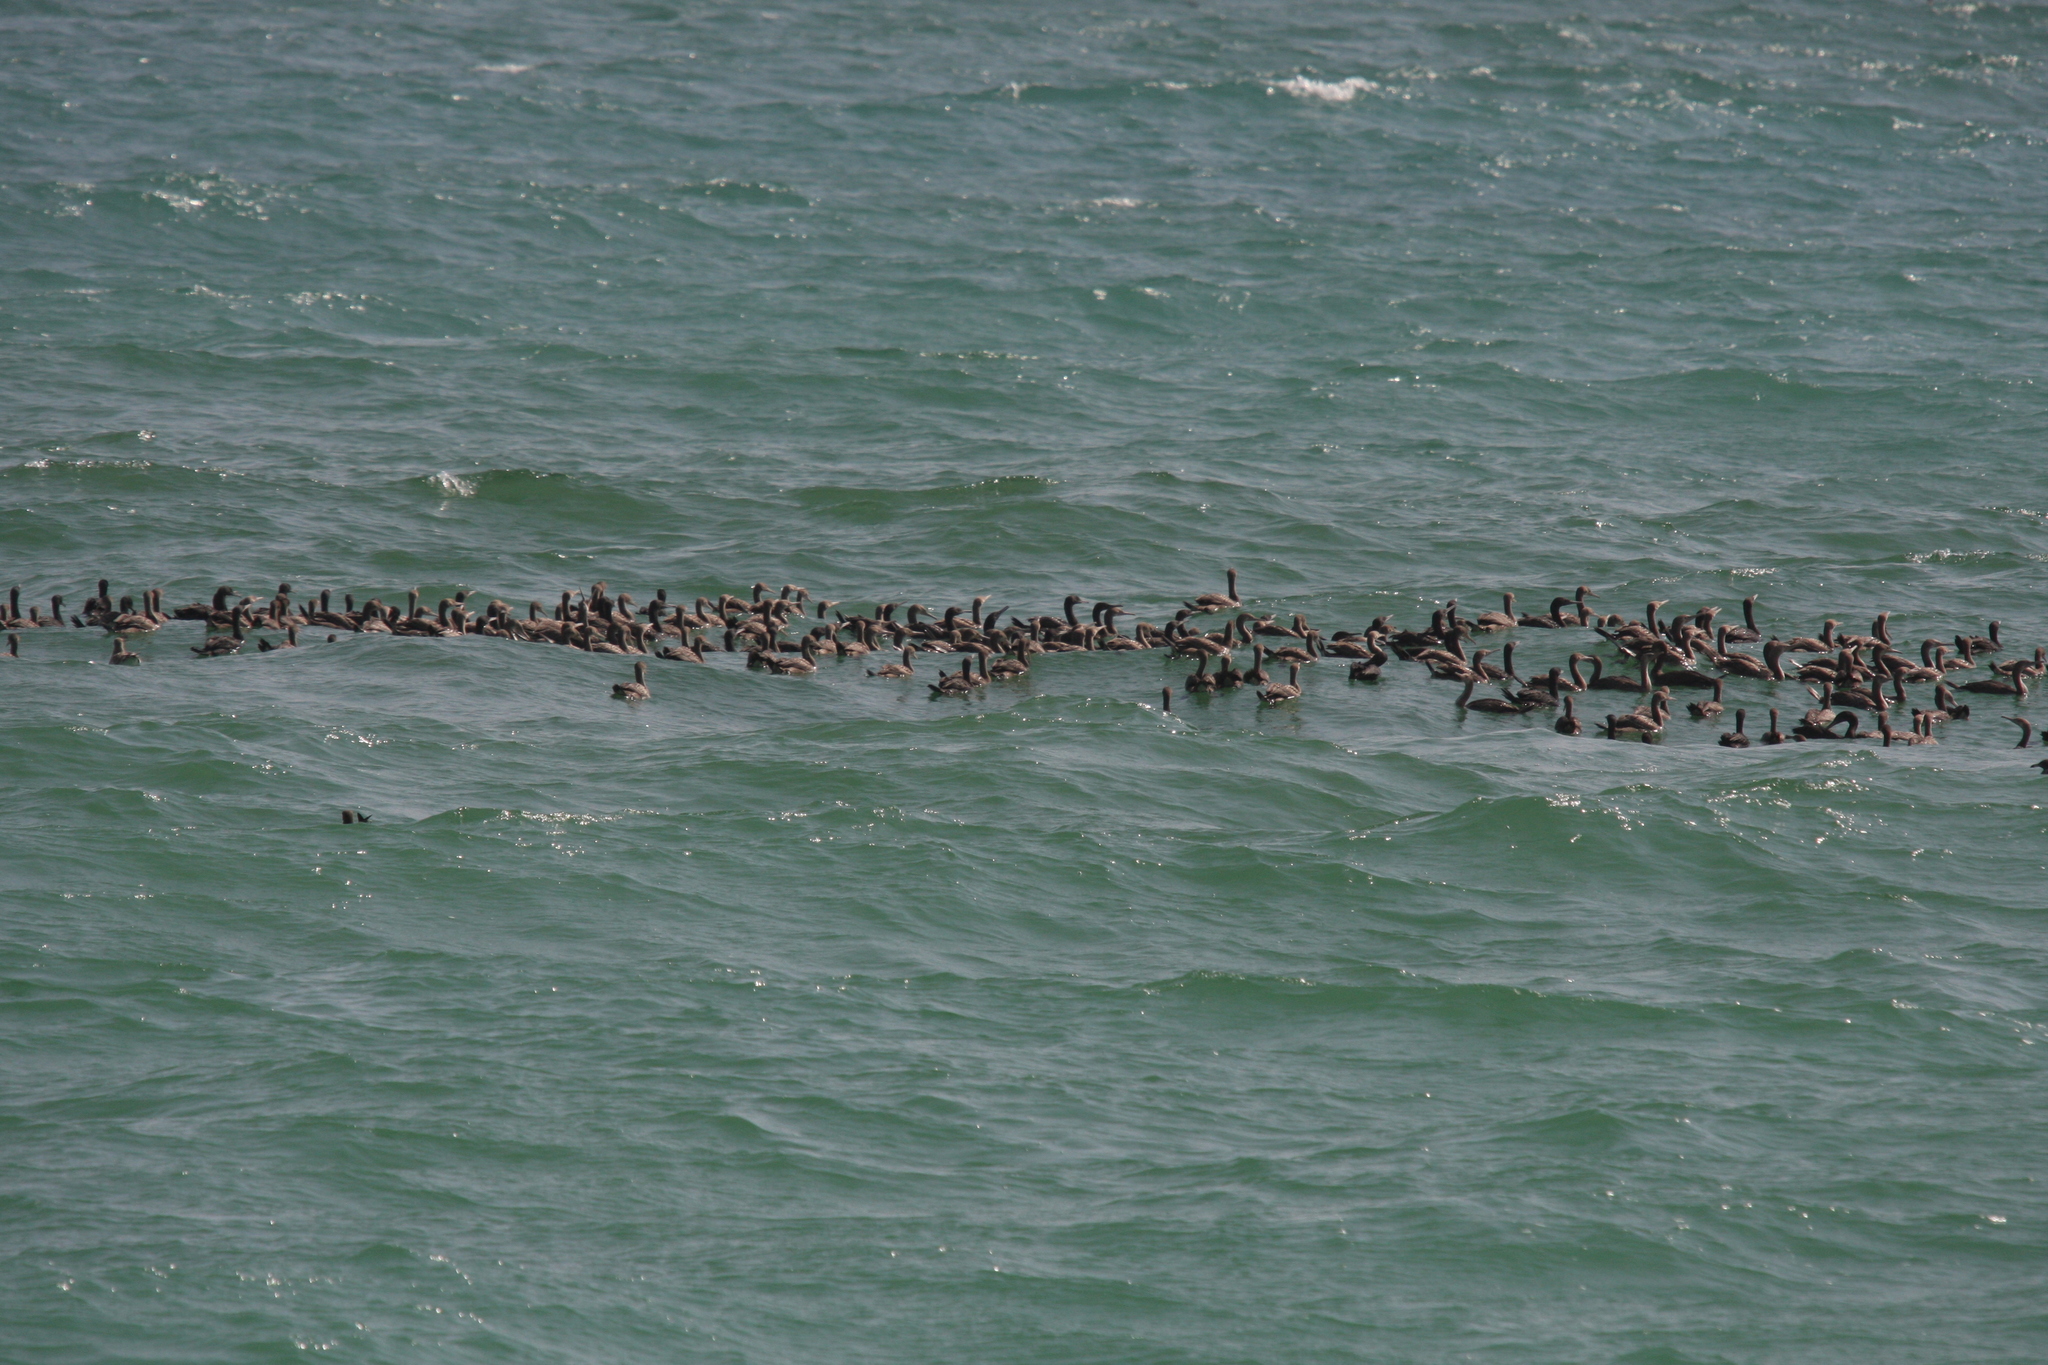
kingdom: Animalia
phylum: Chordata
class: Aves
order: Suliformes
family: Phalacrocoracidae
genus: Phalacrocorax
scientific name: Phalacrocorax nigrogularis
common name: Socotra cormorant
